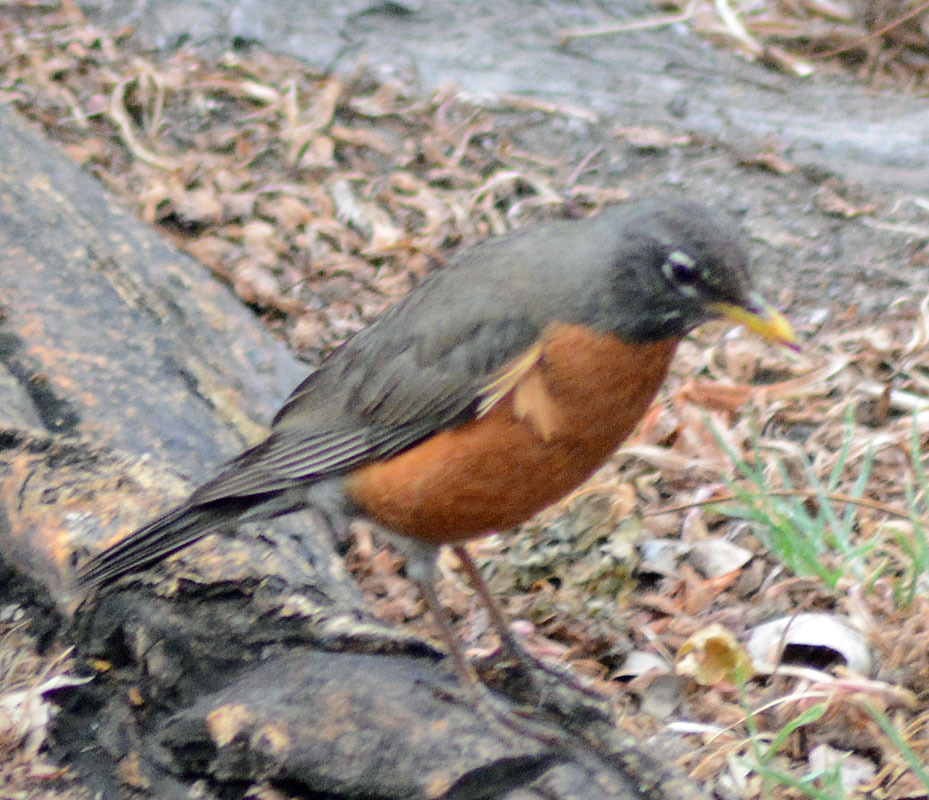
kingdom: Animalia
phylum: Chordata
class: Aves
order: Passeriformes
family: Turdidae
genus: Turdus
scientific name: Turdus migratorius
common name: American robin
